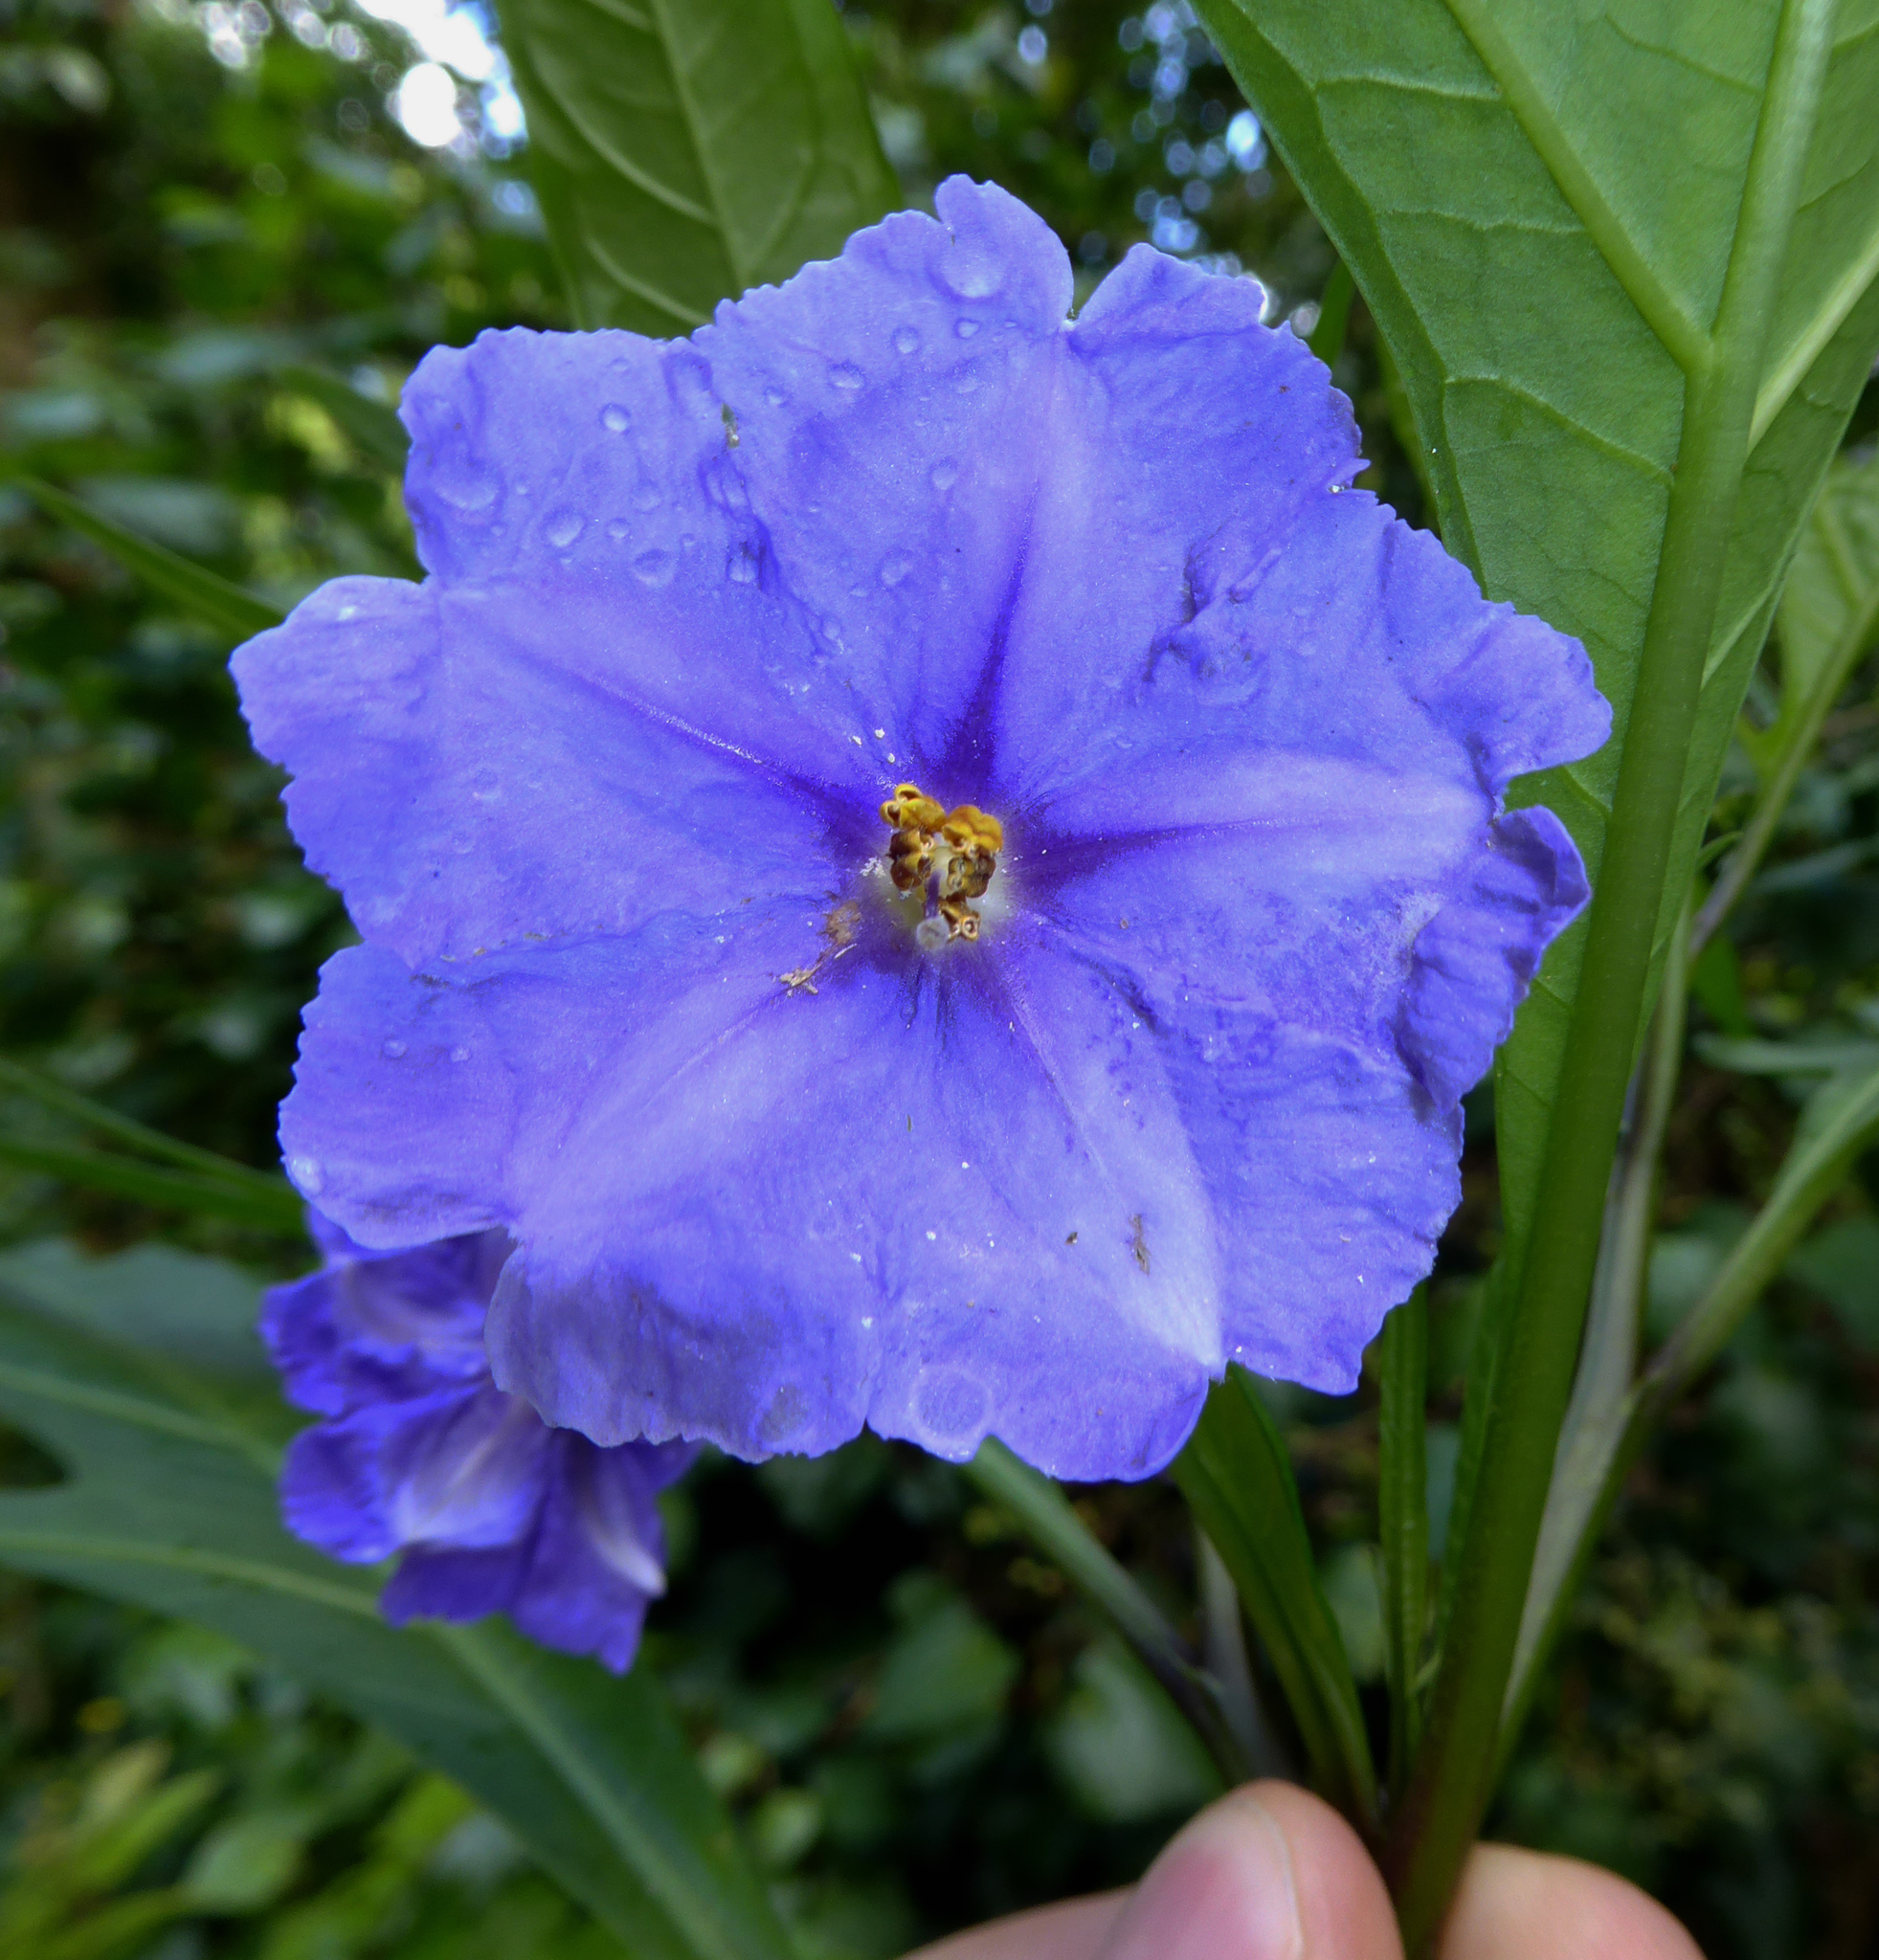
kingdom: Plantae
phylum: Tracheophyta
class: Magnoliopsida
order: Solanales
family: Solanaceae
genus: Solanum
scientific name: Solanum laciniatum
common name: Kangaroo-apple
